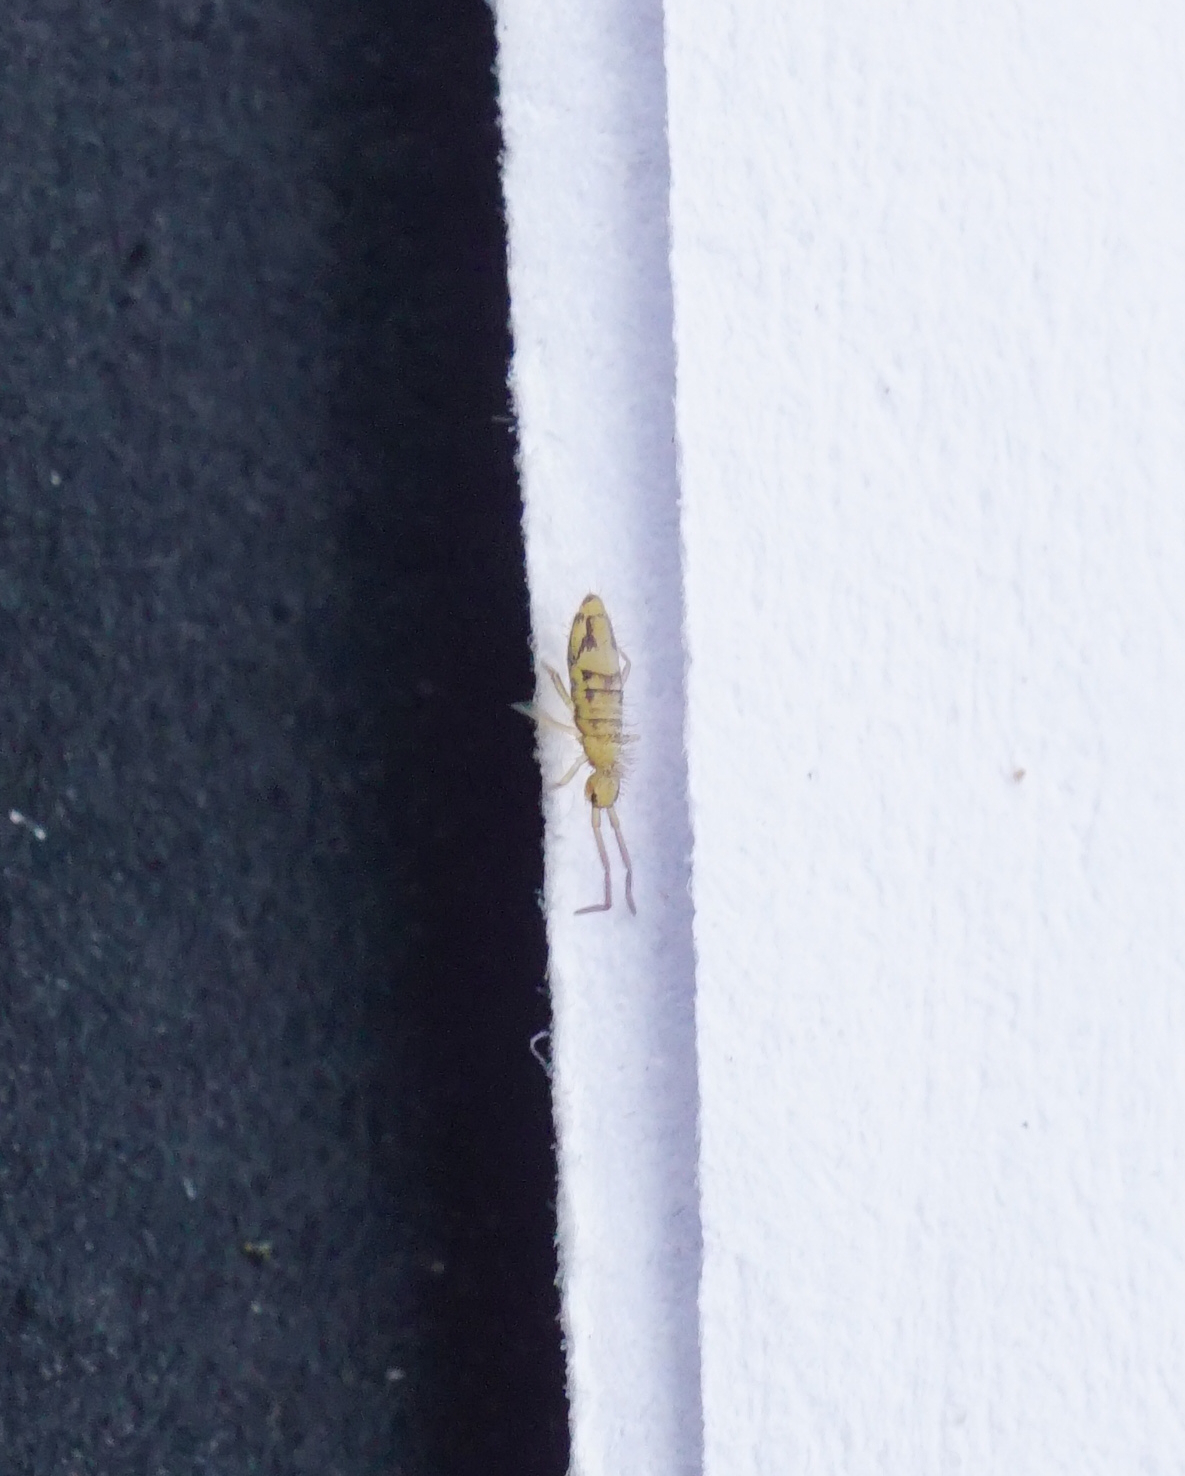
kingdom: Animalia
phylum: Arthropoda
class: Collembola
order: Entomobryomorpha
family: Entomobryidae
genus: Entomobrya
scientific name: Entomobrya nivalis
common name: Cosmopolitan springtail
